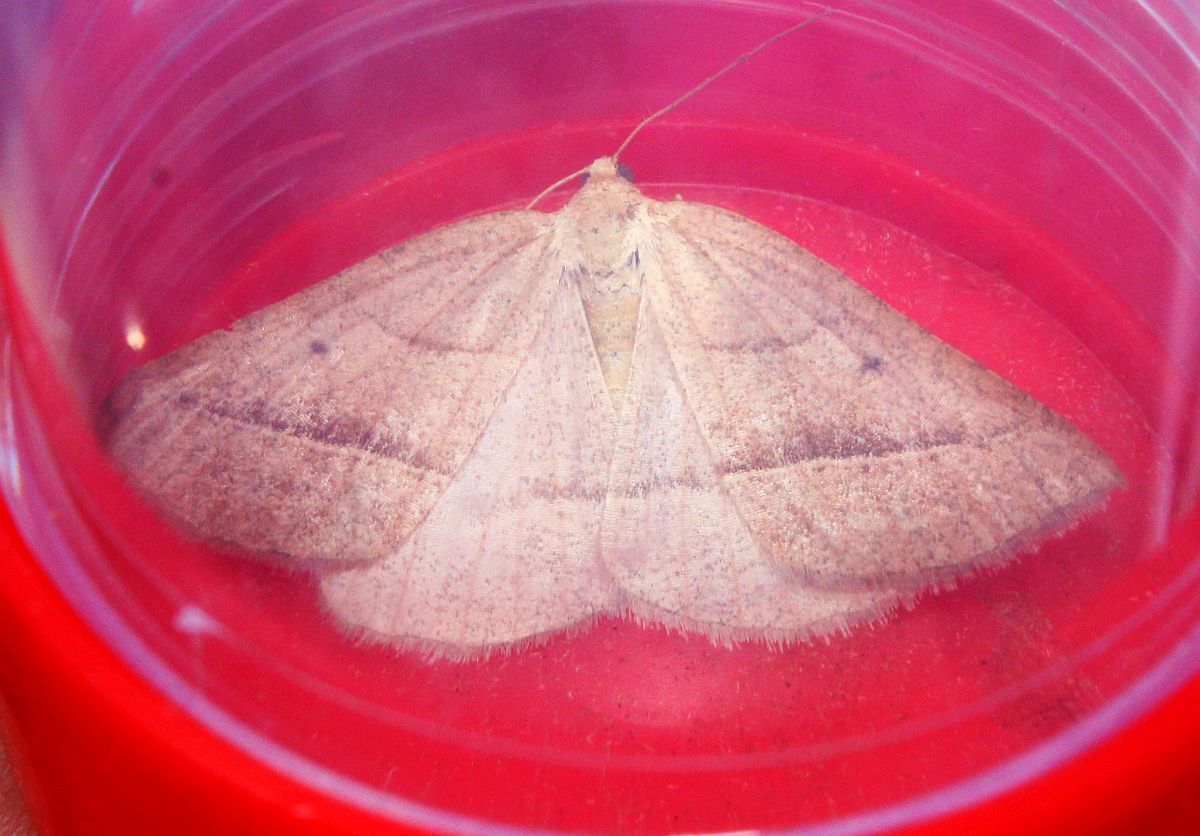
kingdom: Animalia
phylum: Arthropoda
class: Insecta
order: Lepidoptera
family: Pterophoridae
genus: Pterophorus
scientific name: Pterophorus Petrophora chlorosata
